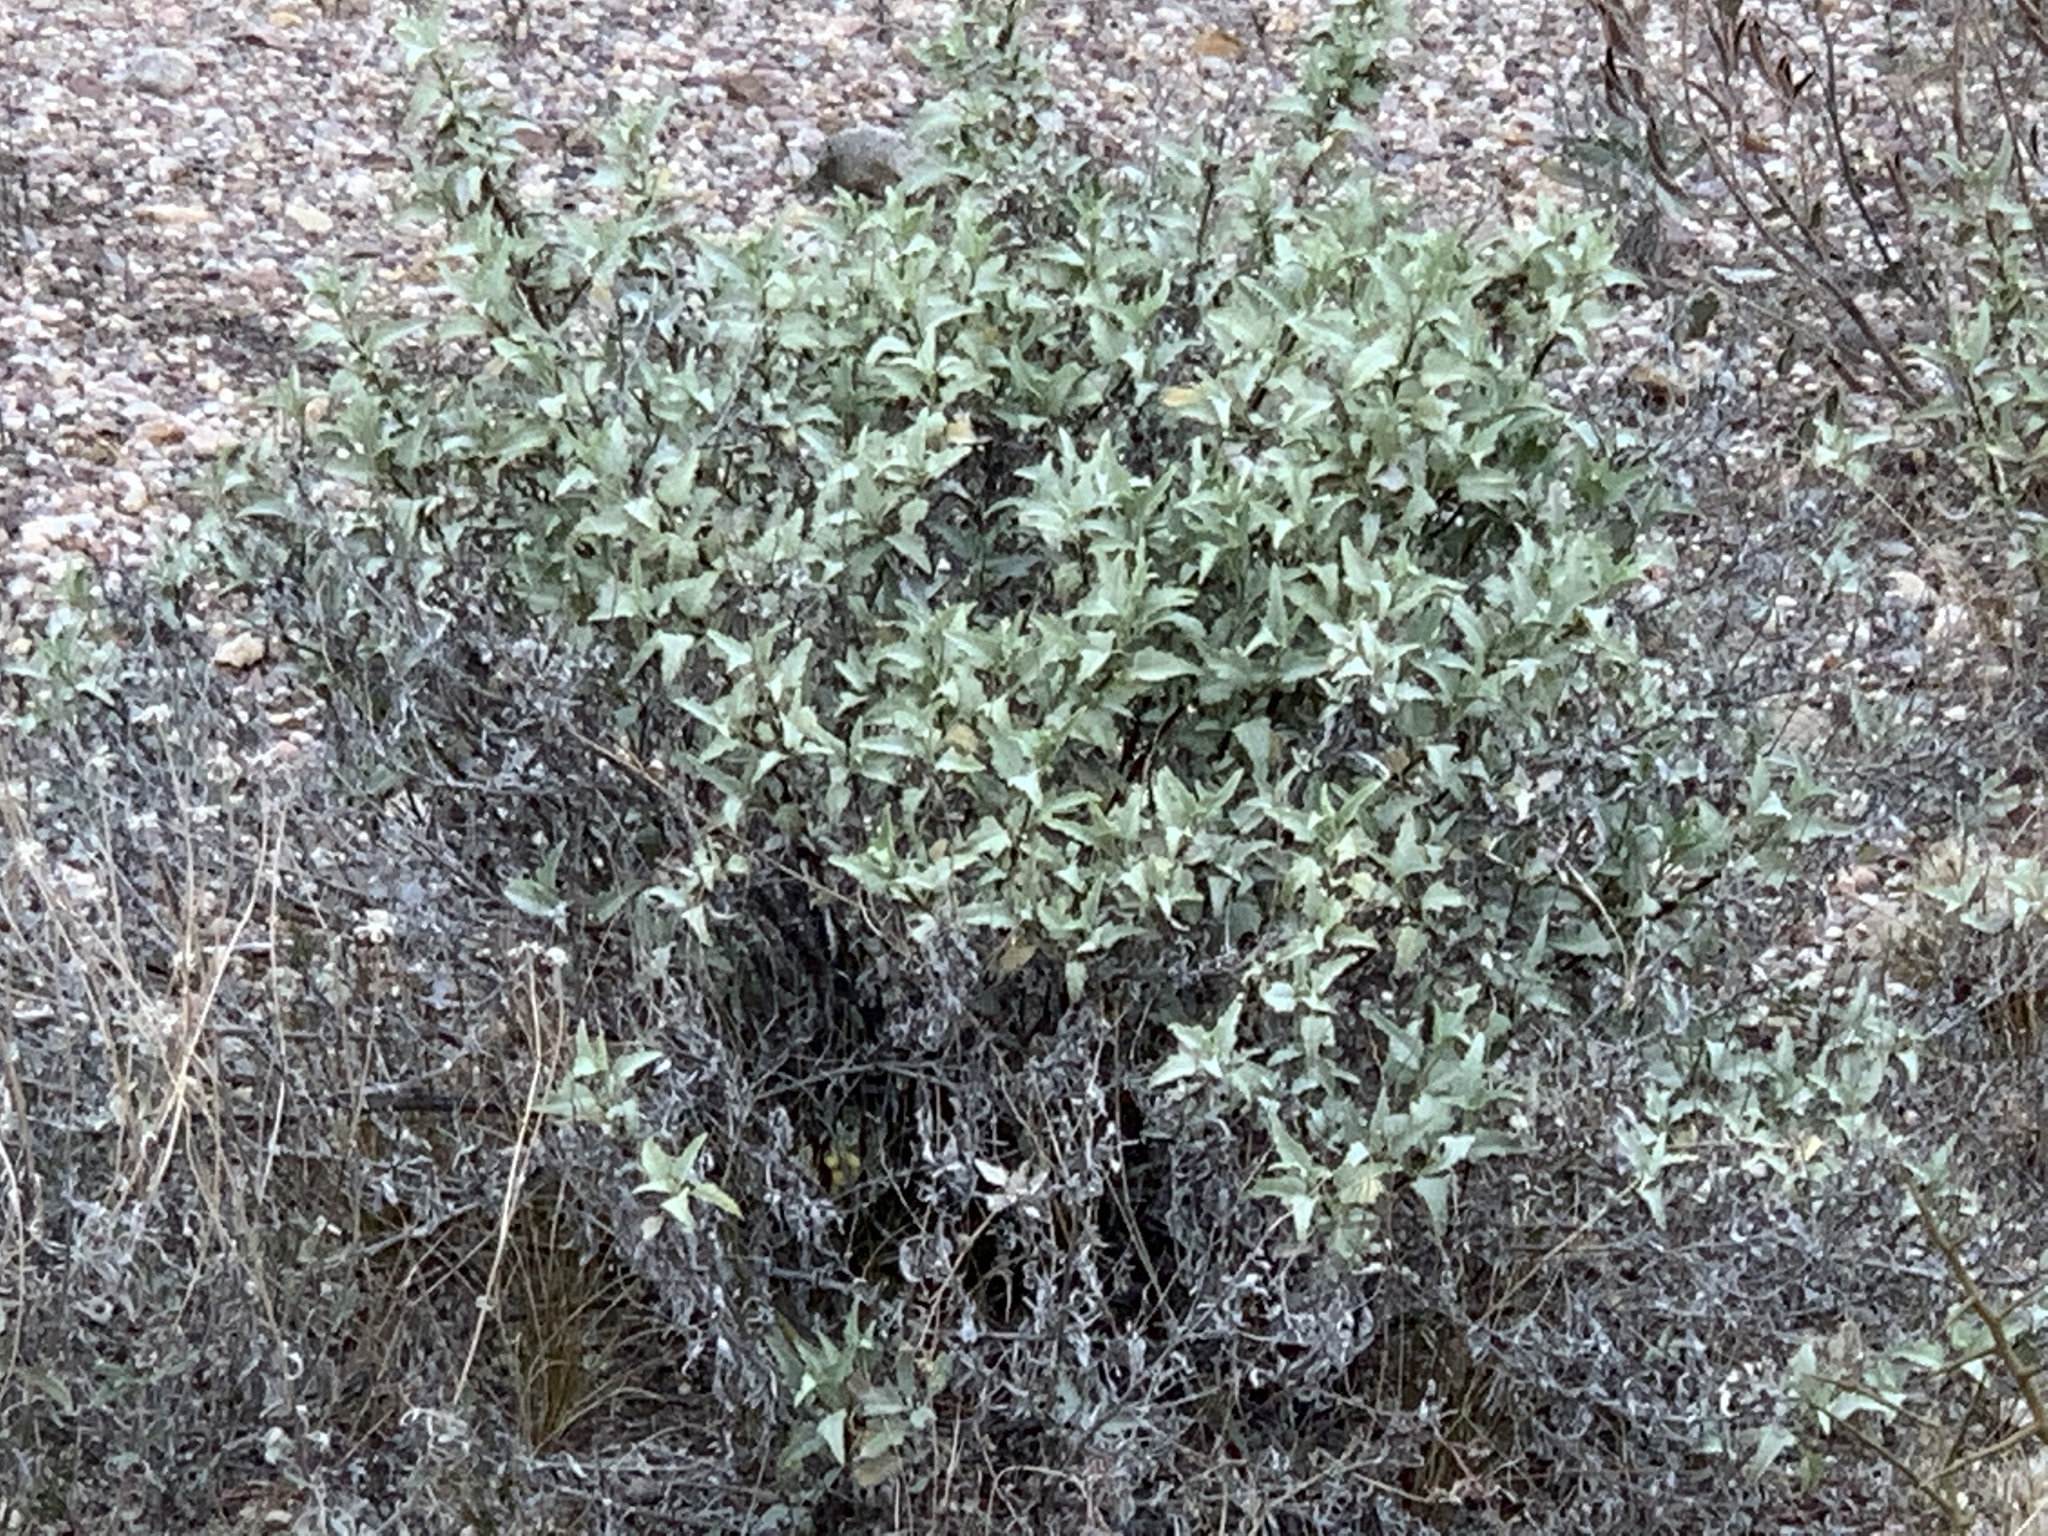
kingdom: Plantae
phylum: Tracheophyta
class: Magnoliopsida
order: Asterales
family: Asteraceae
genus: Ambrosia
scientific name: Ambrosia deltoidea
